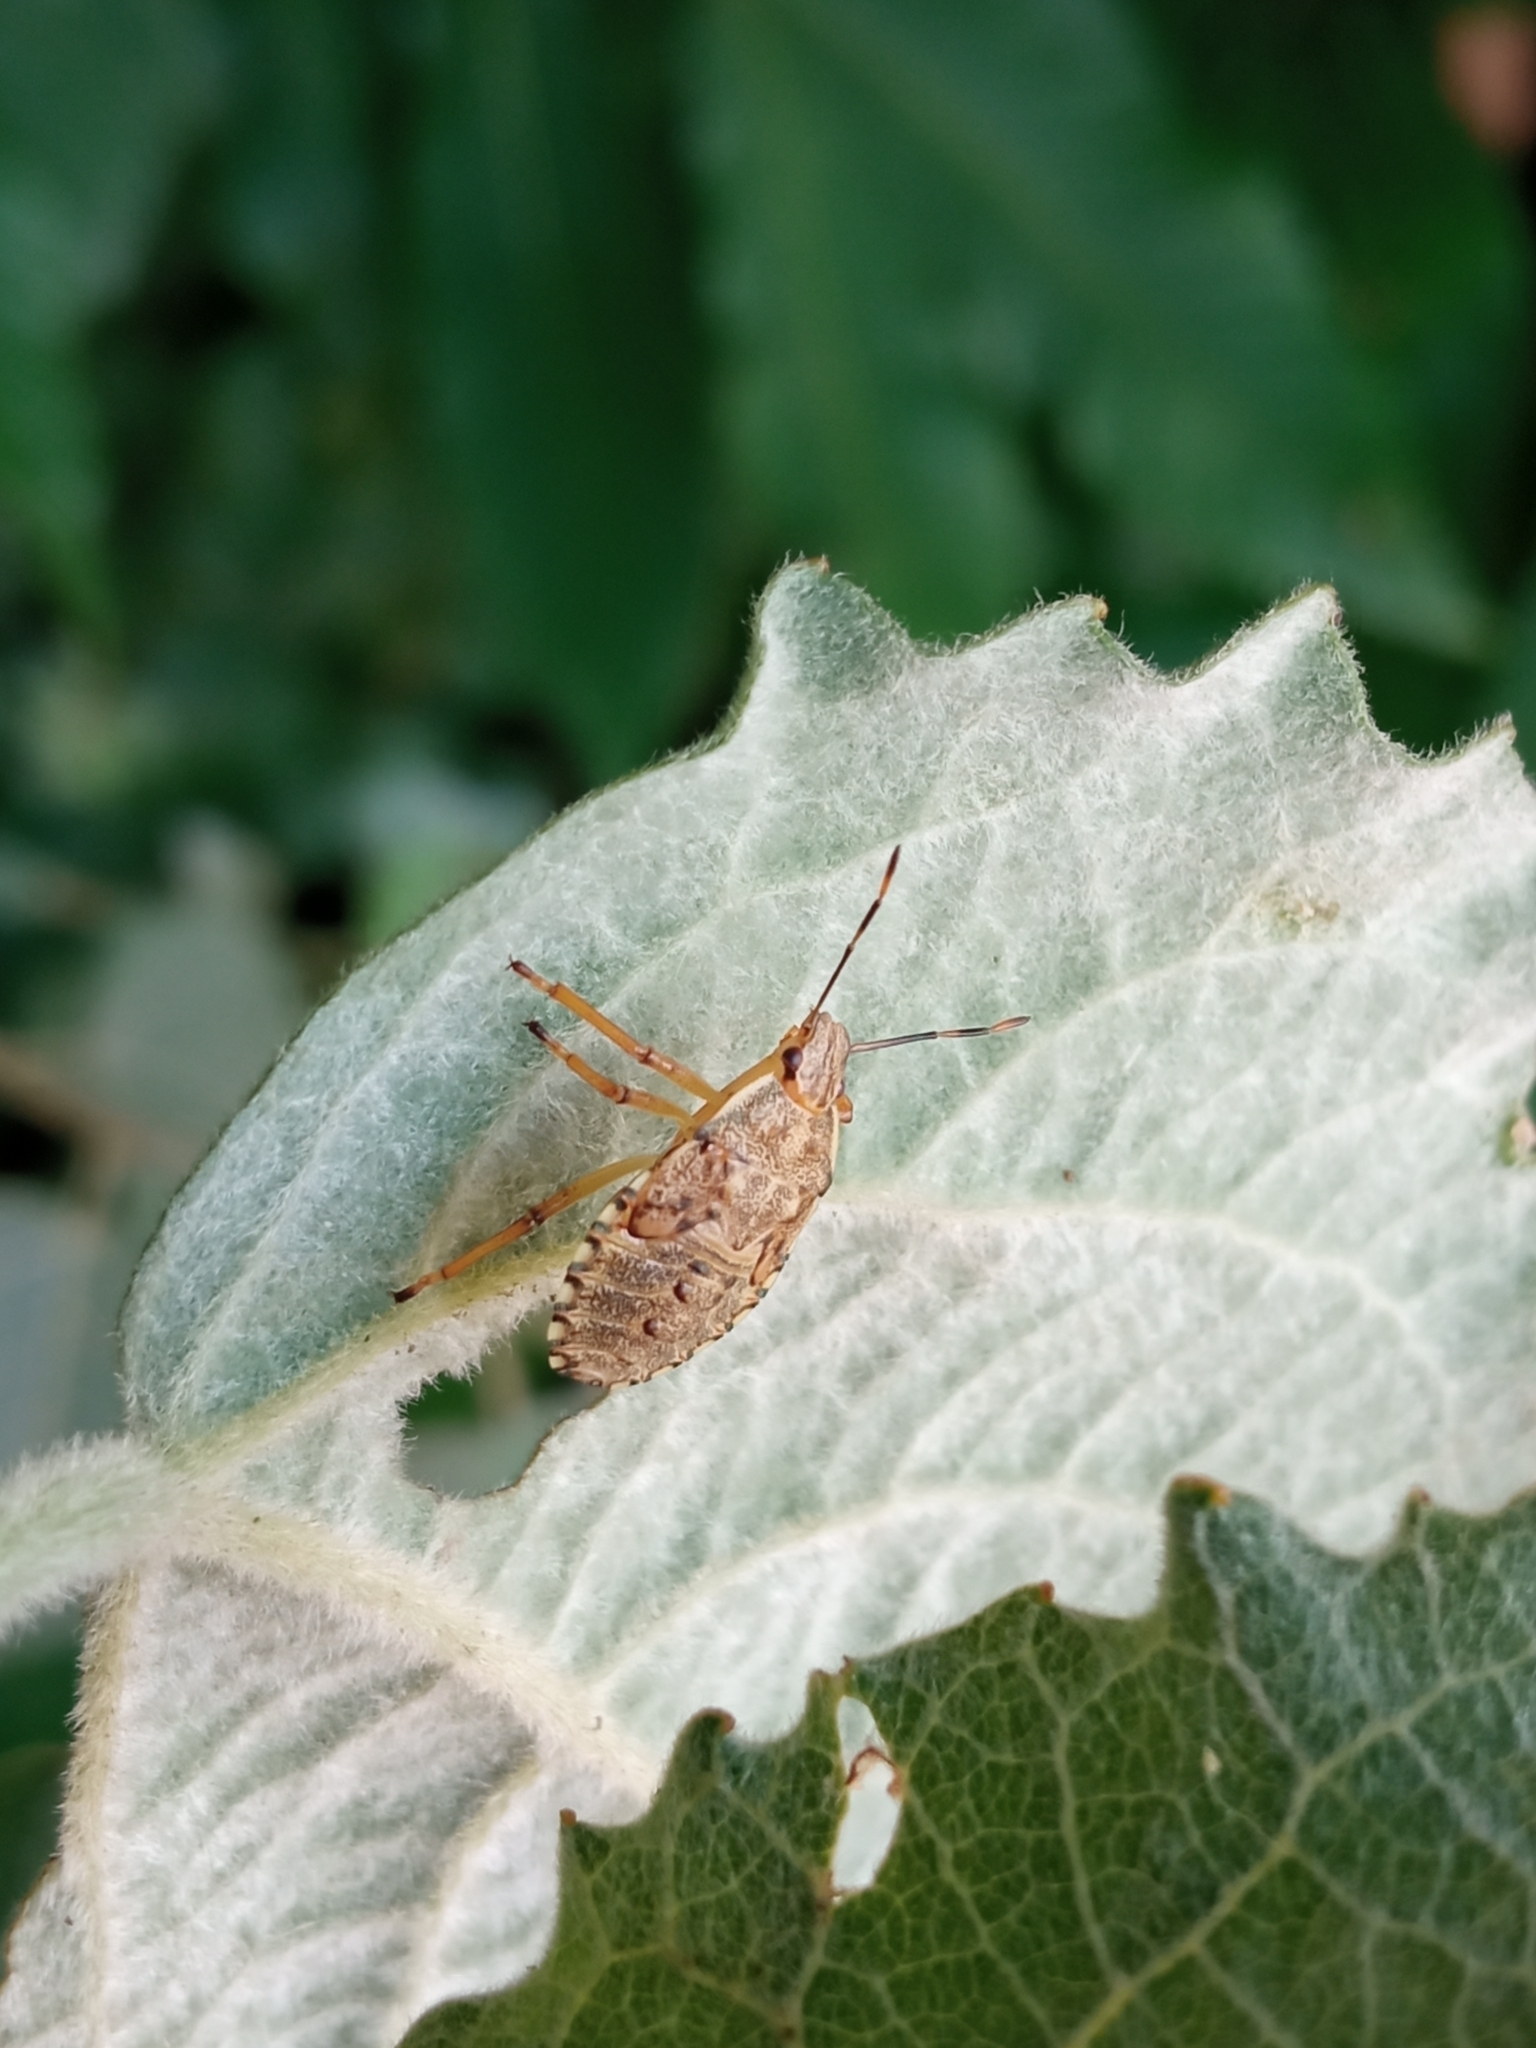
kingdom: Animalia
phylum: Arthropoda
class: Insecta
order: Hemiptera
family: Pentatomidae
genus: Arma
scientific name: Arma custos
